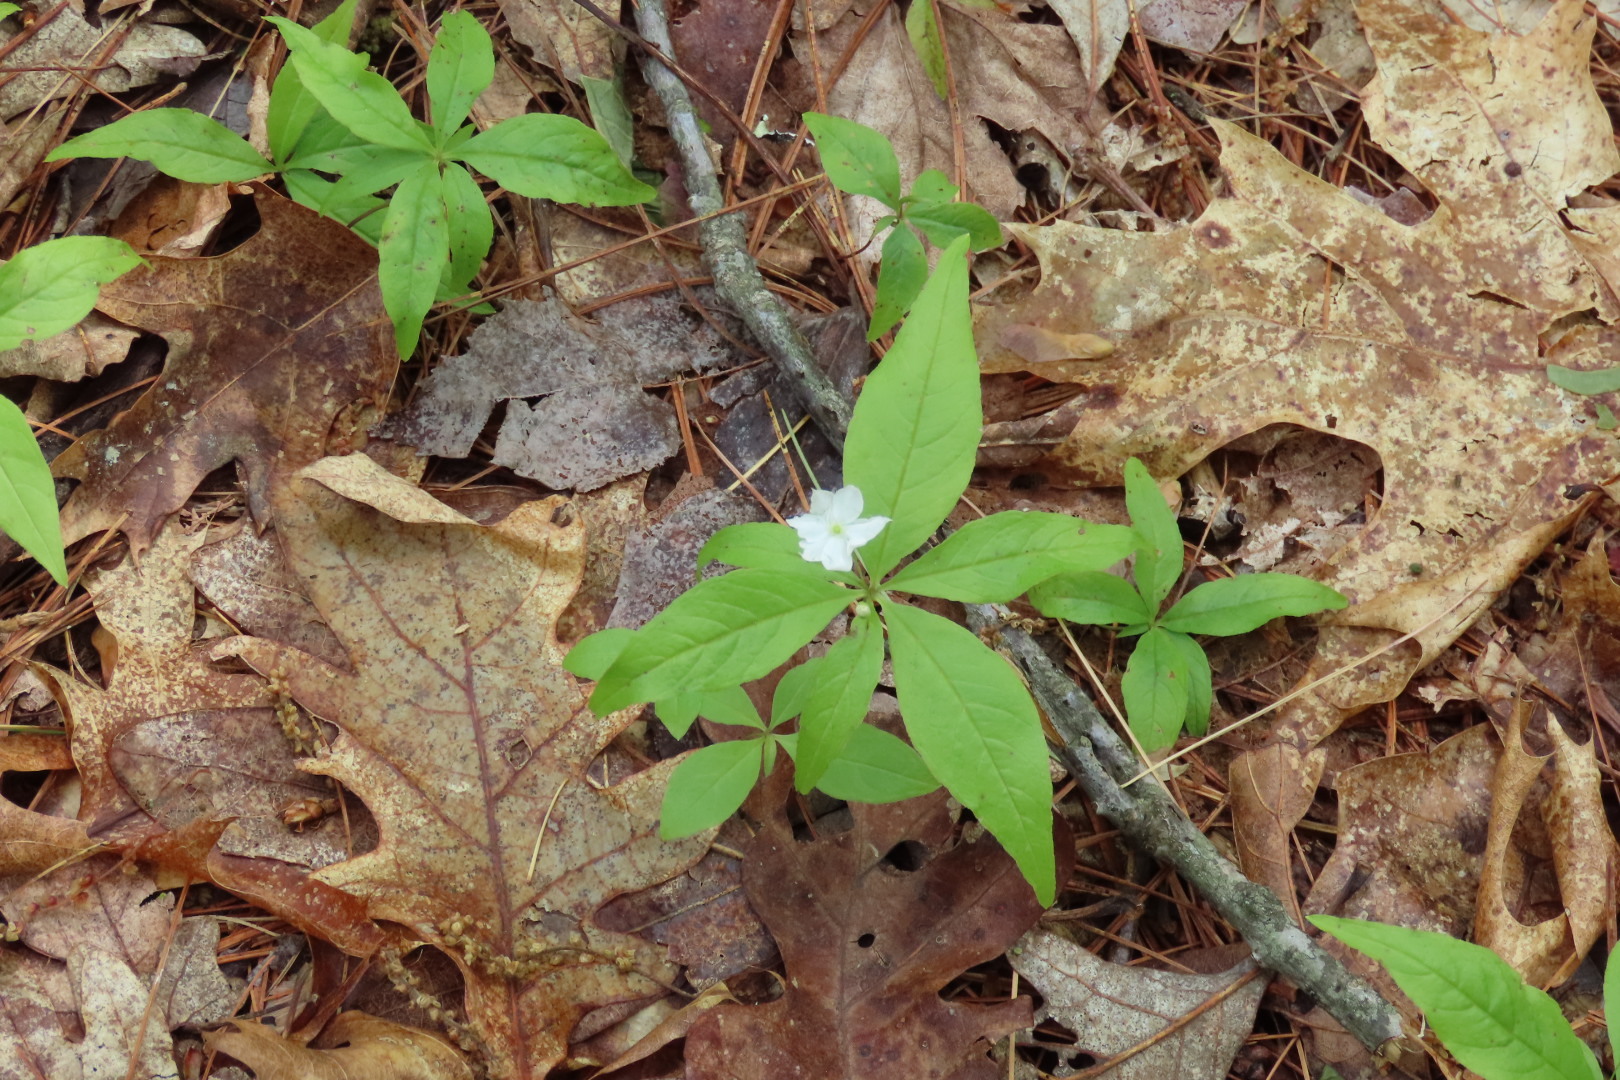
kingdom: Plantae
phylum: Tracheophyta
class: Magnoliopsida
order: Ericales
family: Primulaceae
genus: Lysimachia
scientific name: Lysimachia borealis
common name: American starflower
